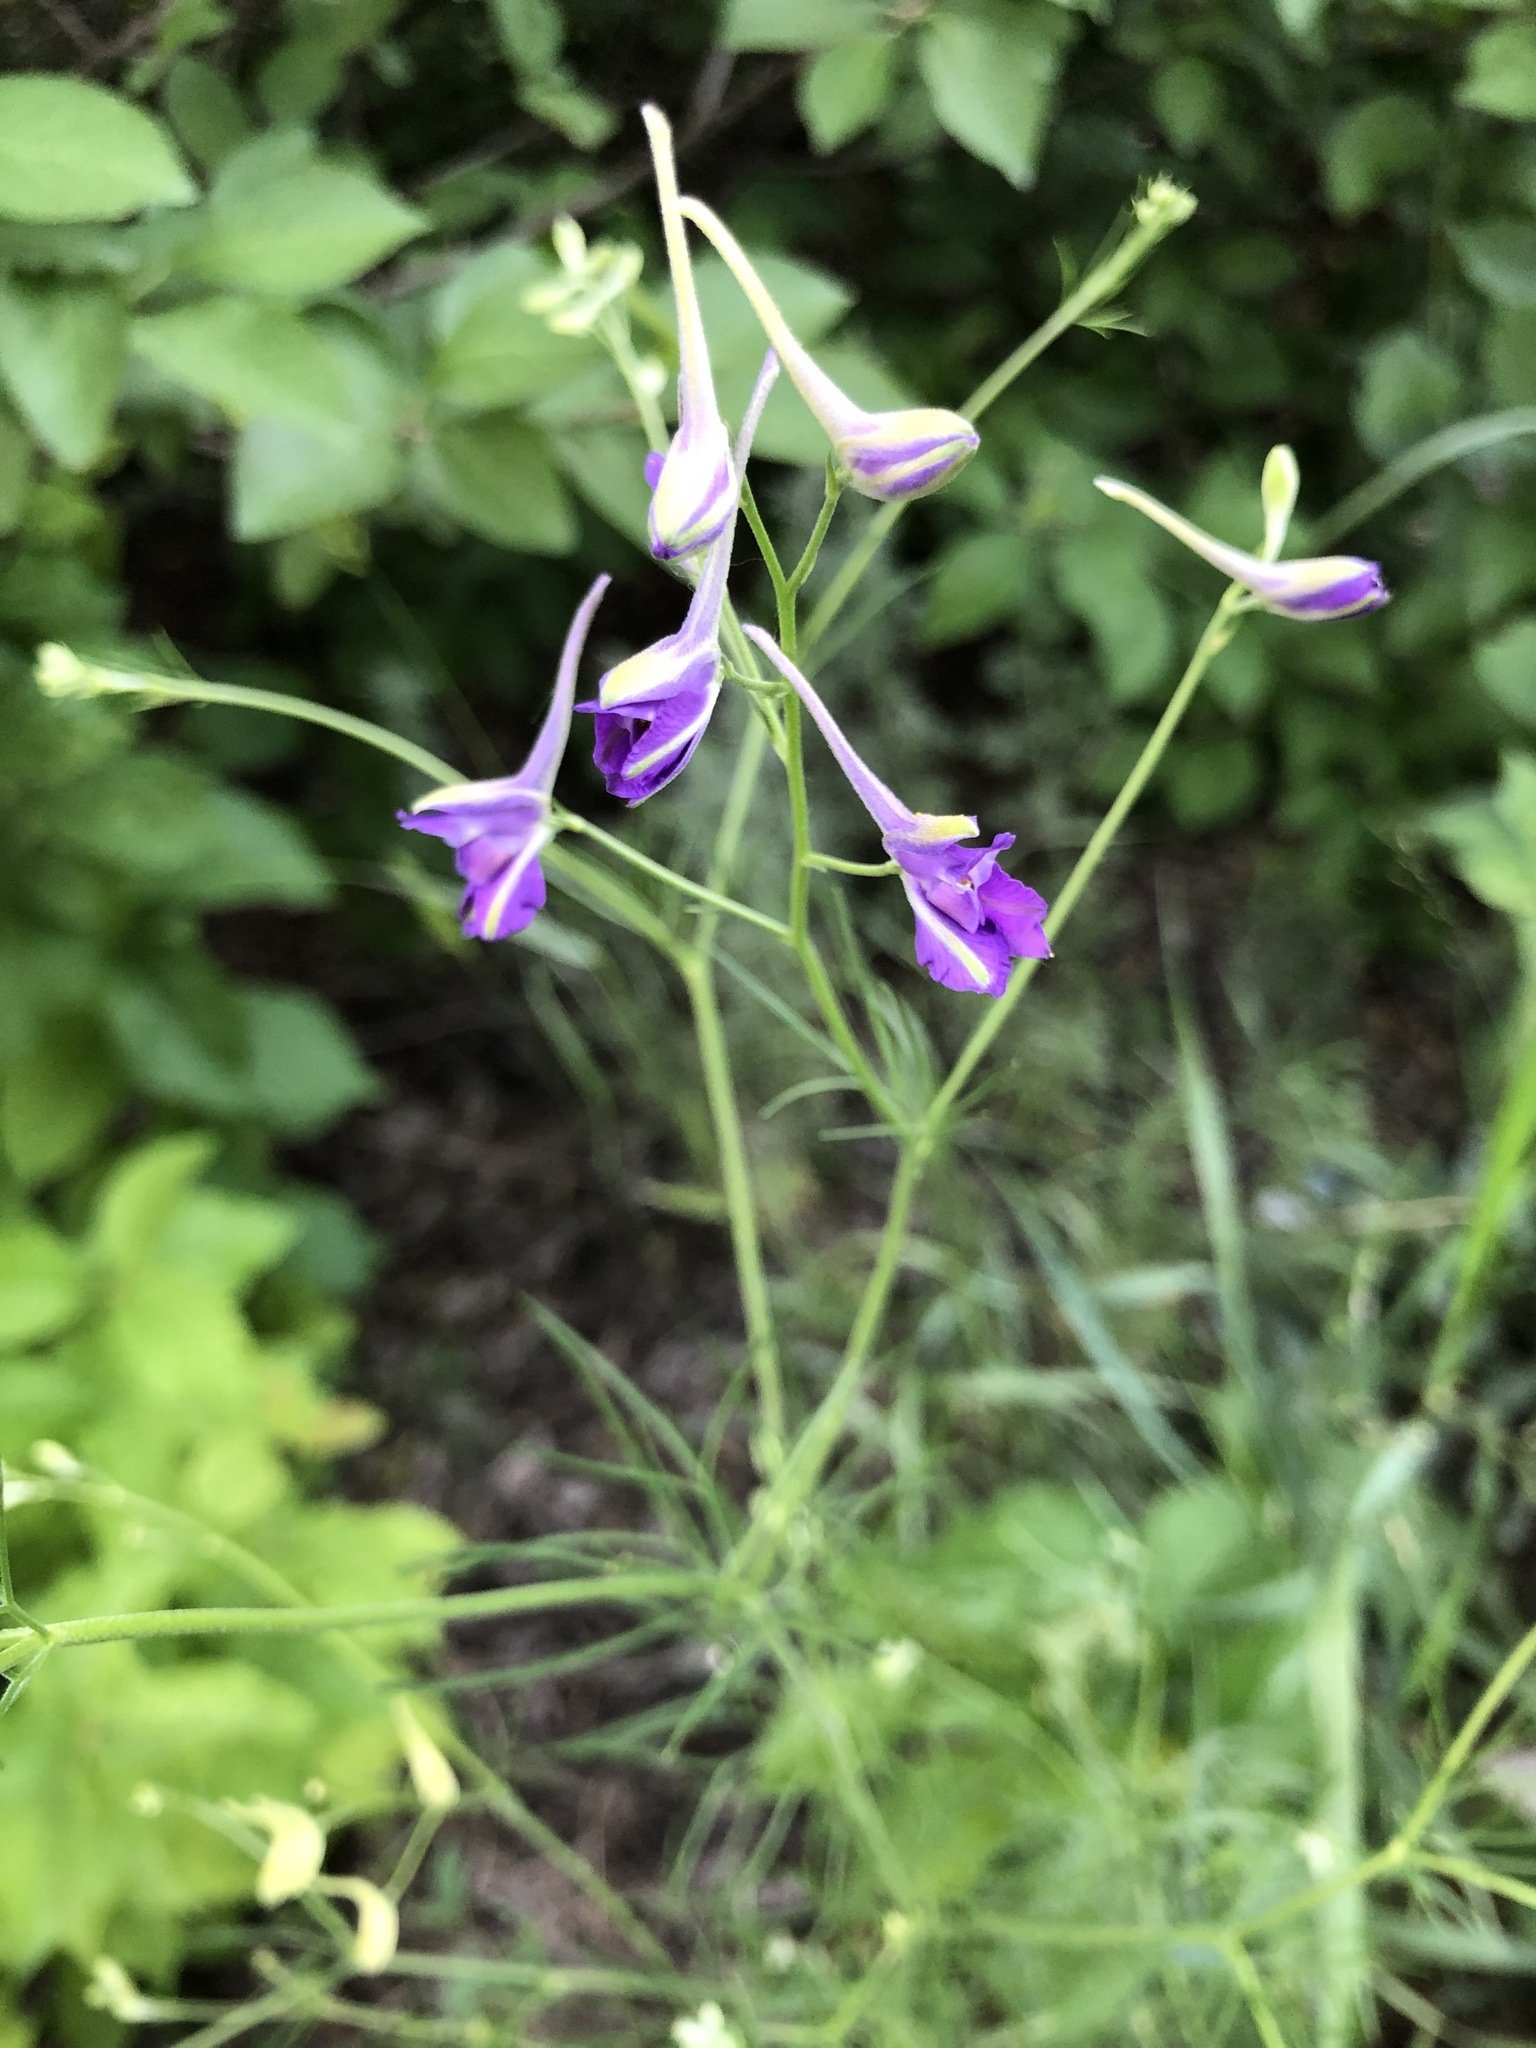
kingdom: Plantae
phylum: Tracheophyta
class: Magnoliopsida
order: Ranunculales
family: Ranunculaceae
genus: Delphinium
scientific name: Delphinium consolida
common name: Branching larkspur
